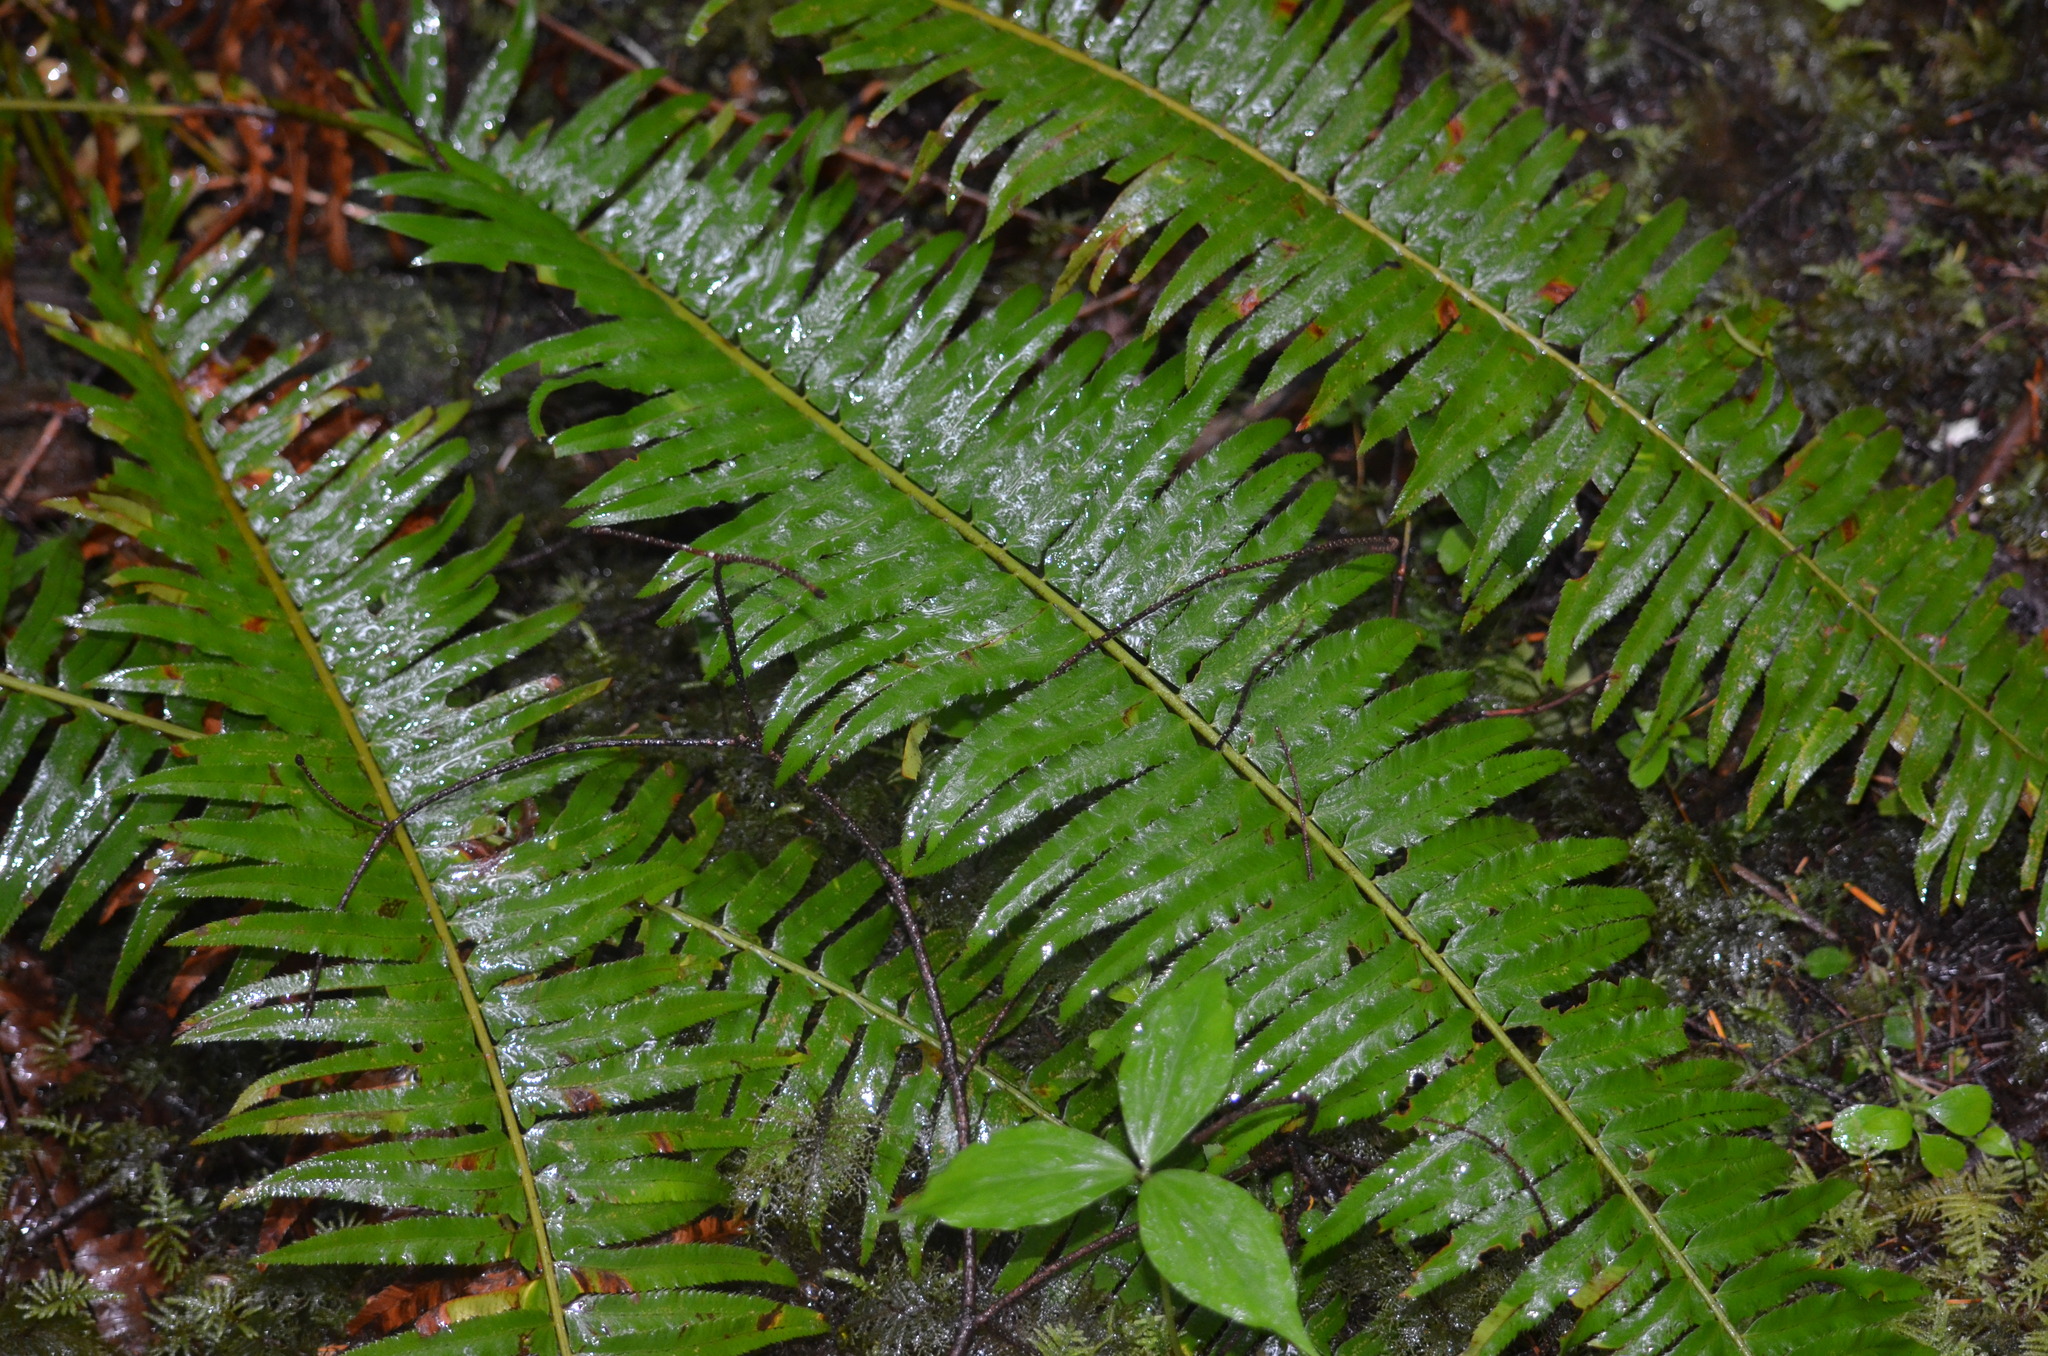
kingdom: Plantae
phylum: Tracheophyta
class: Polypodiopsida
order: Polypodiales
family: Dryopteridaceae
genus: Polystichum
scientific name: Polystichum munitum
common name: Western sword-fern
